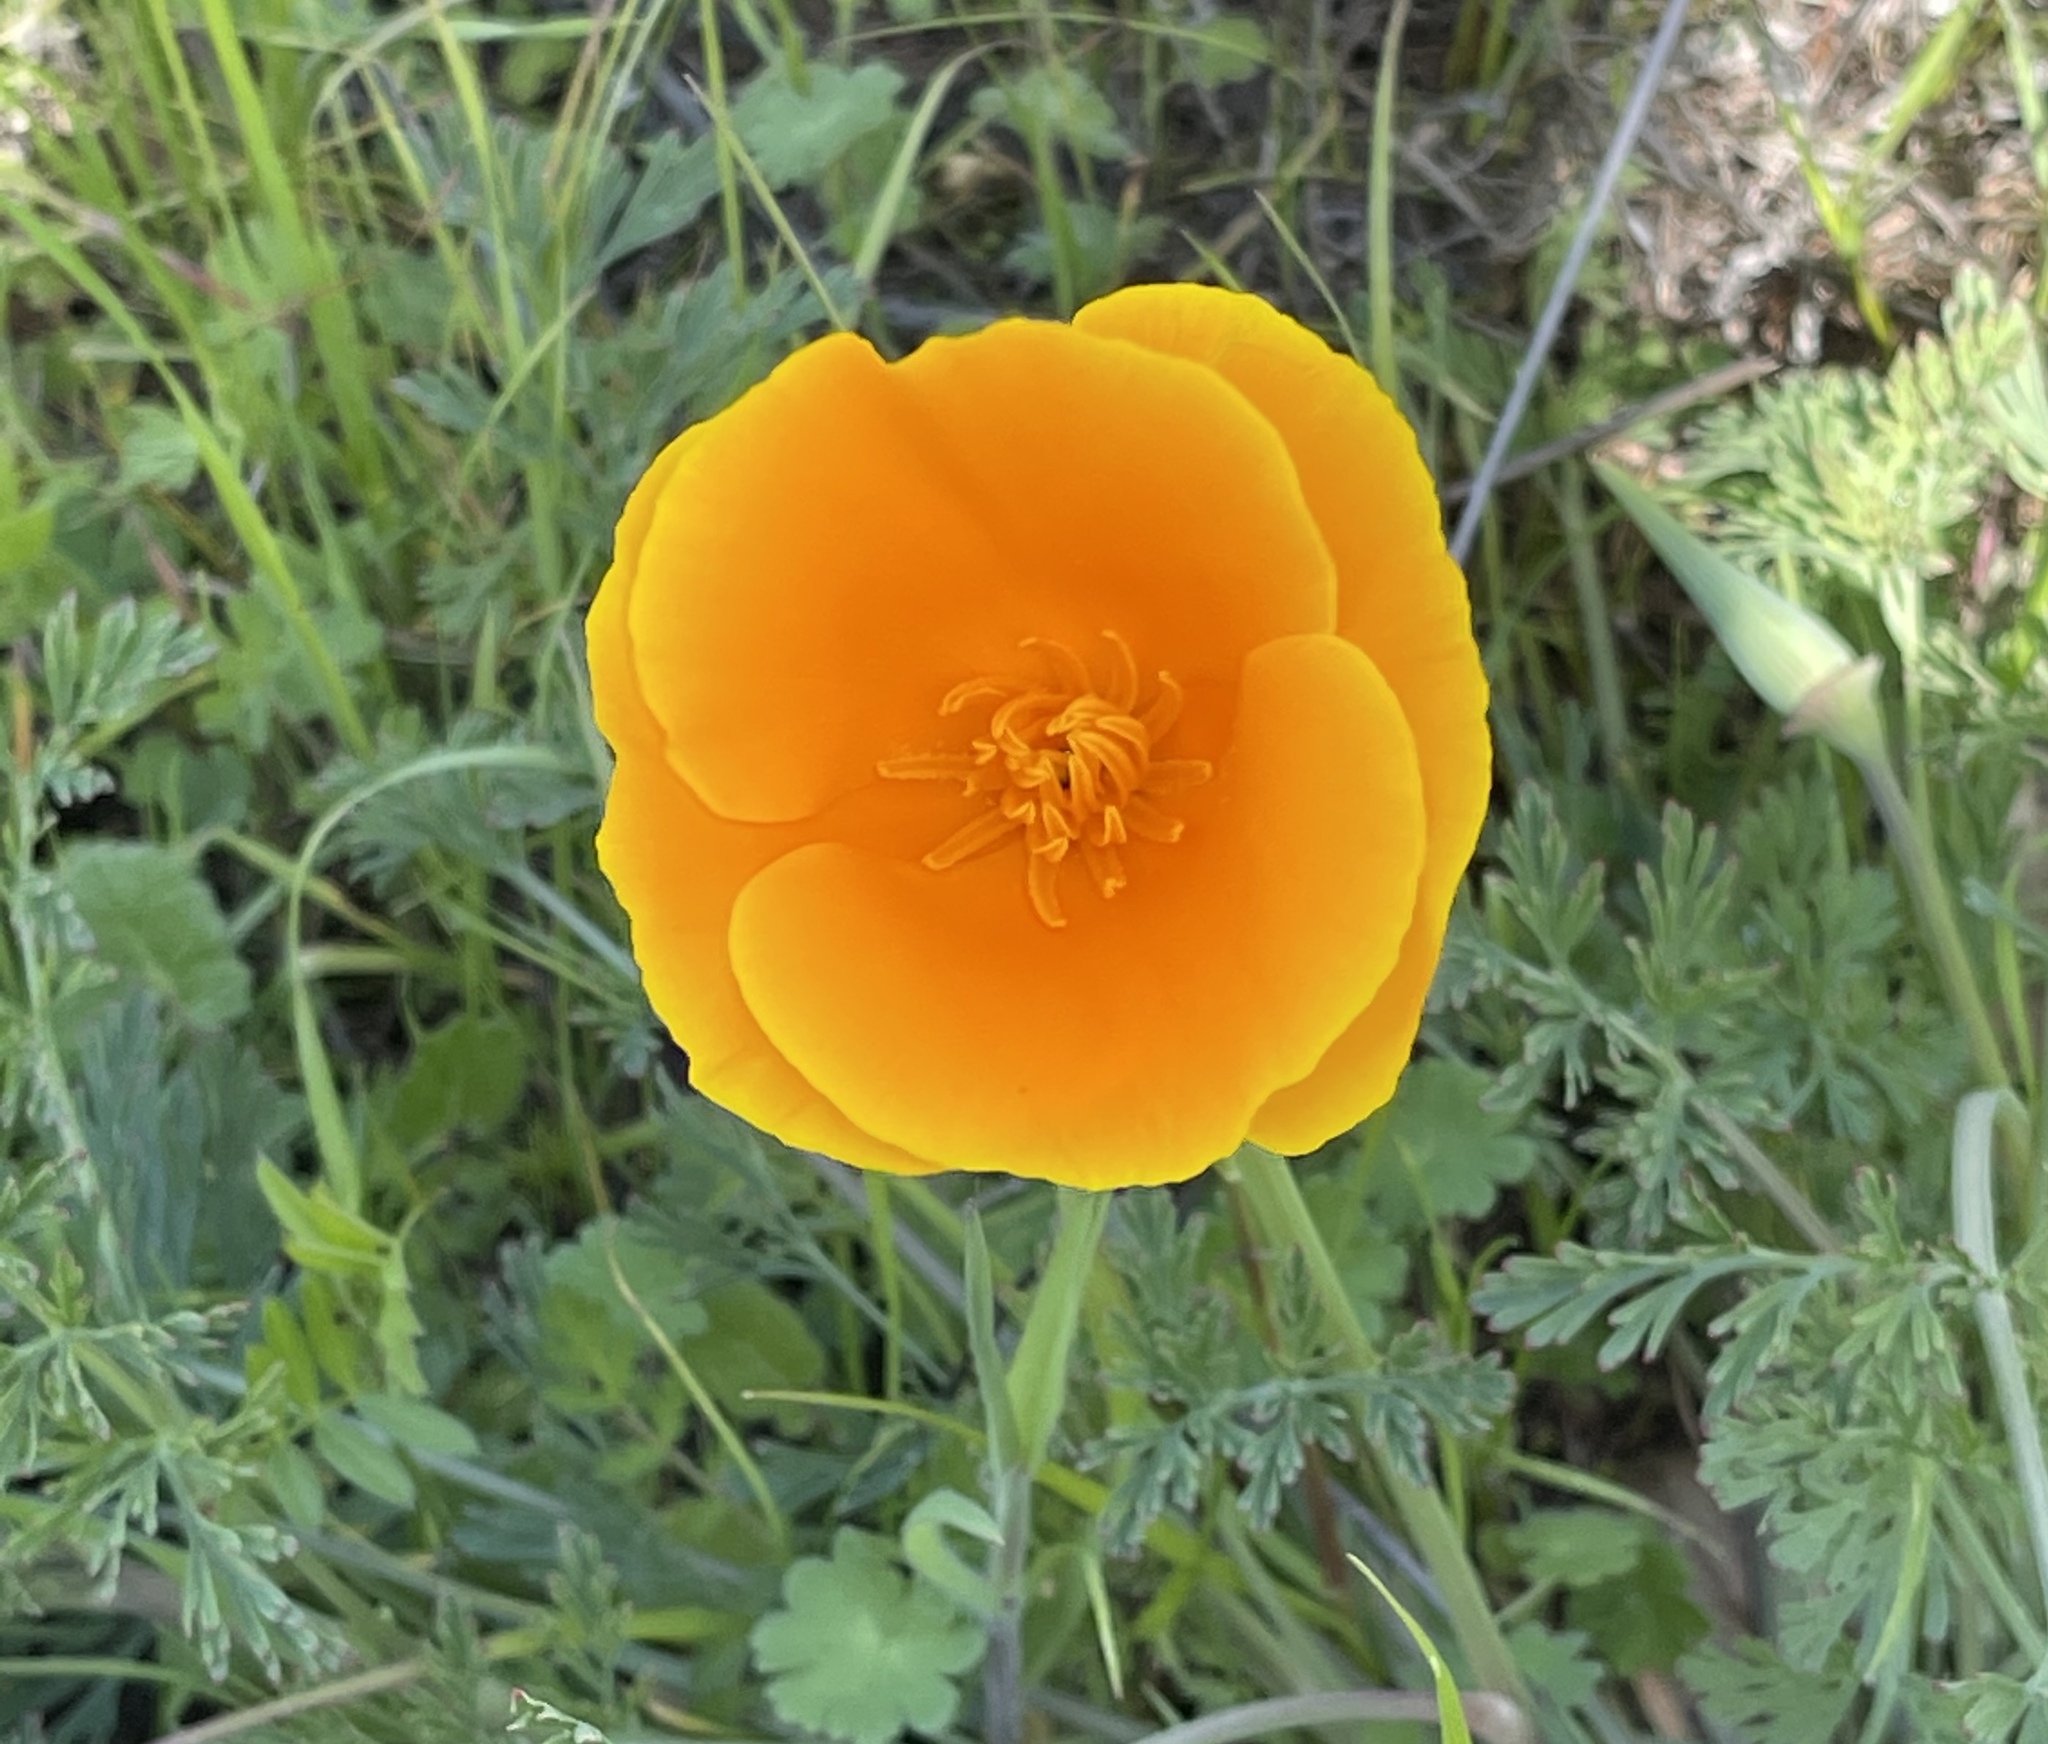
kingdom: Plantae
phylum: Tracheophyta
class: Magnoliopsida
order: Ranunculales
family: Papaveraceae
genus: Eschscholzia
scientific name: Eschscholzia californica
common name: California poppy
